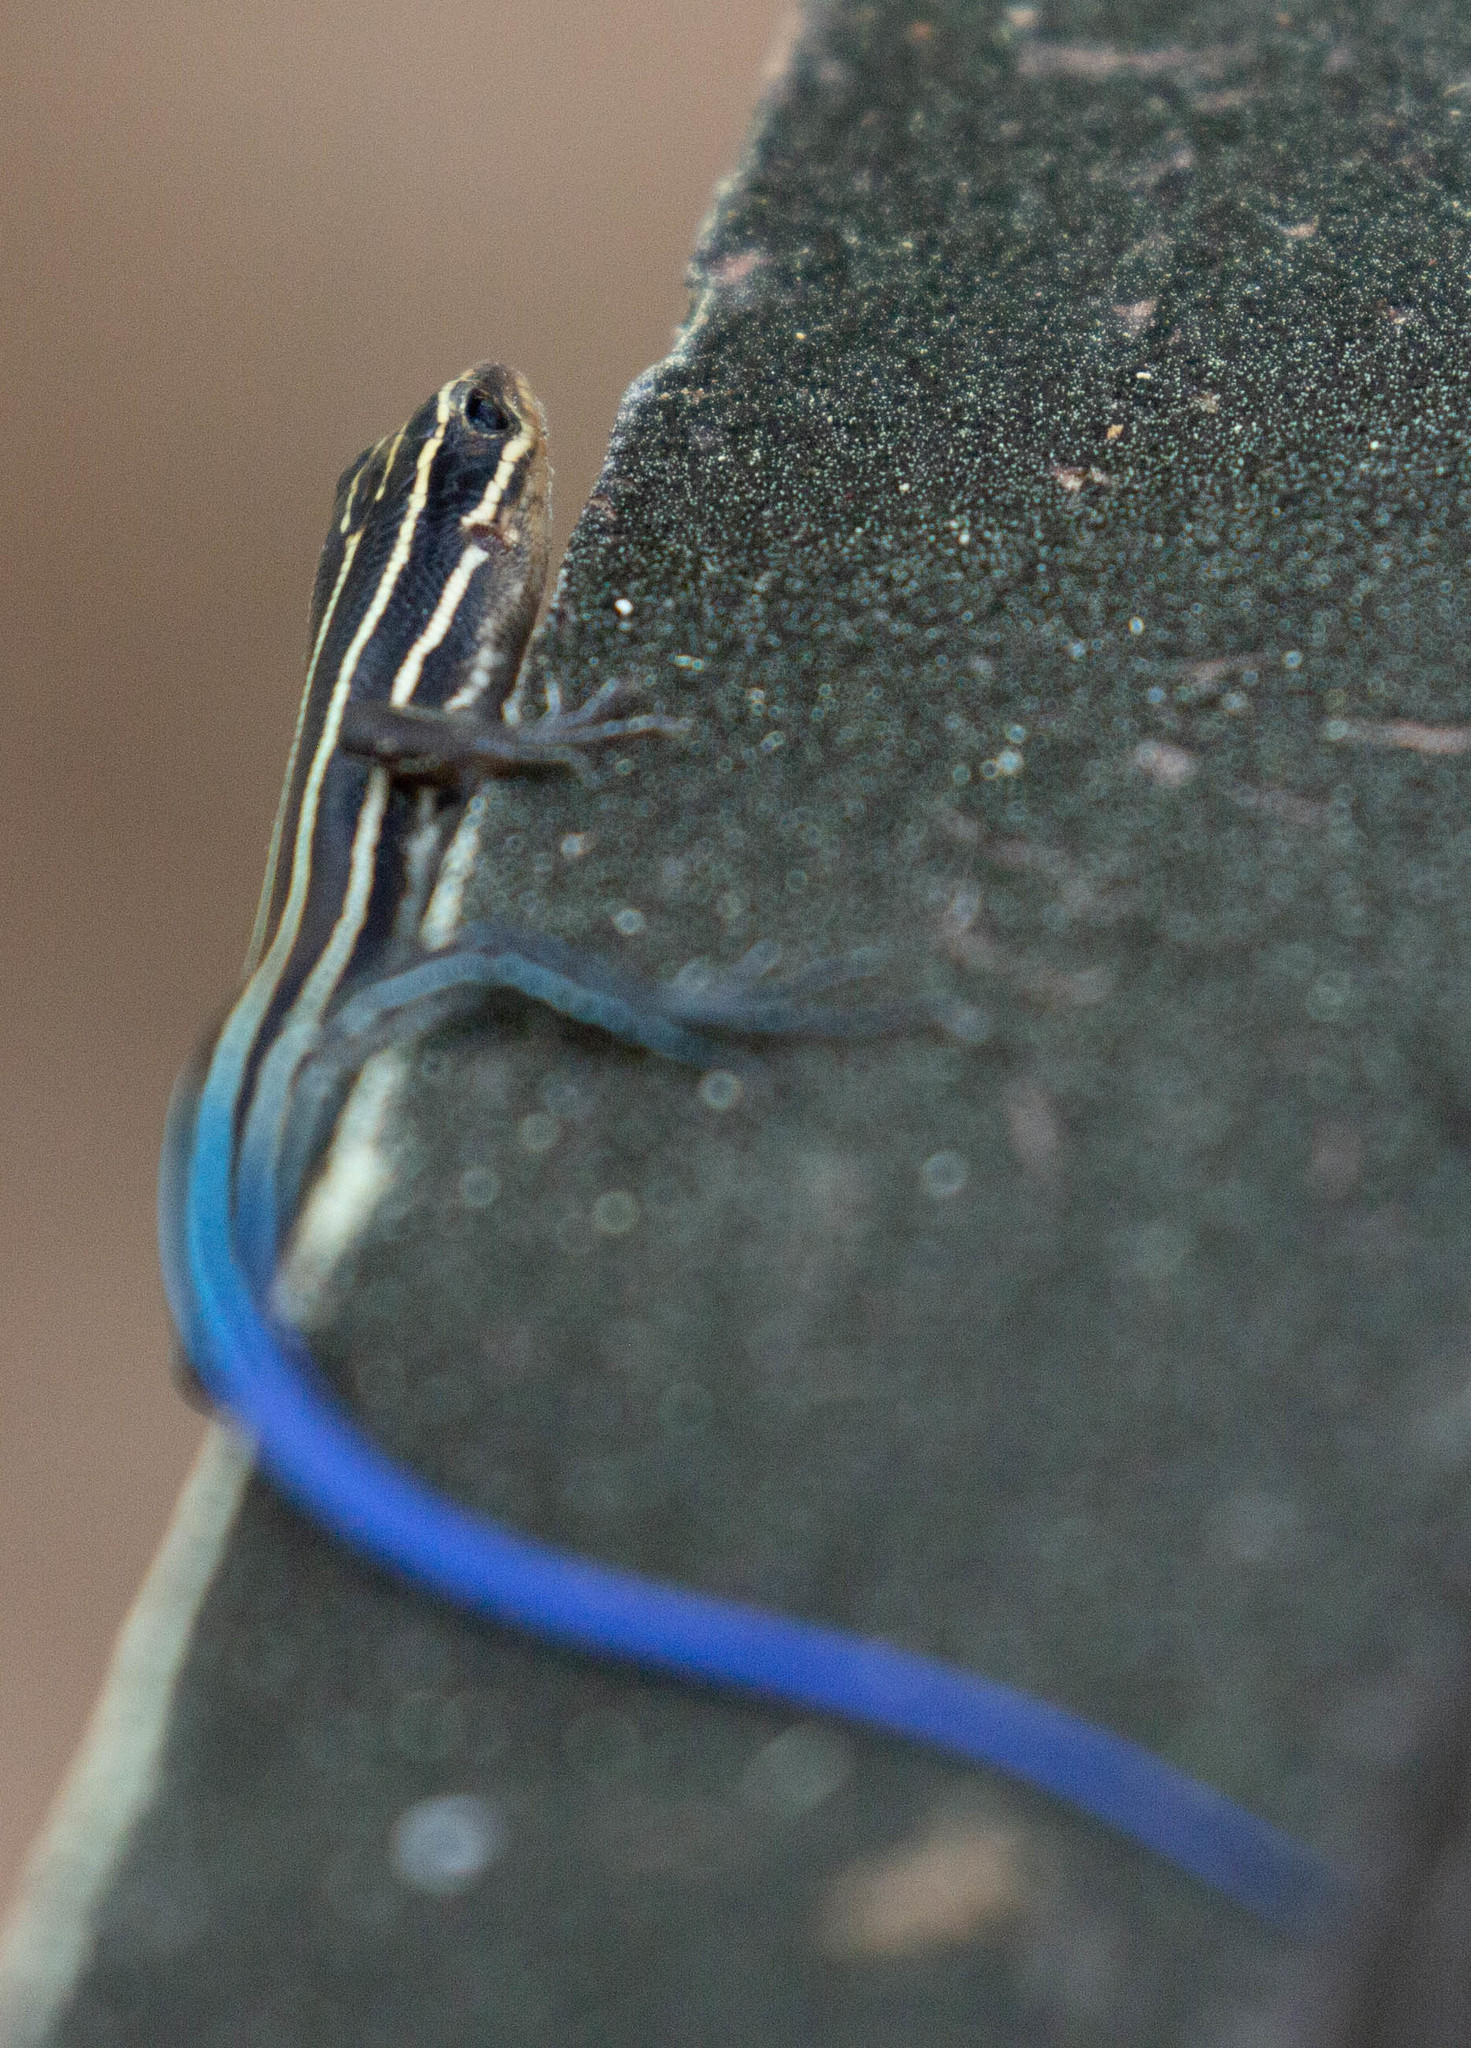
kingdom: Animalia
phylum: Chordata
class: Squamata
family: Scincidae
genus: Plestiodon
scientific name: Plestiodon laticeps
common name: Broadhead skink
